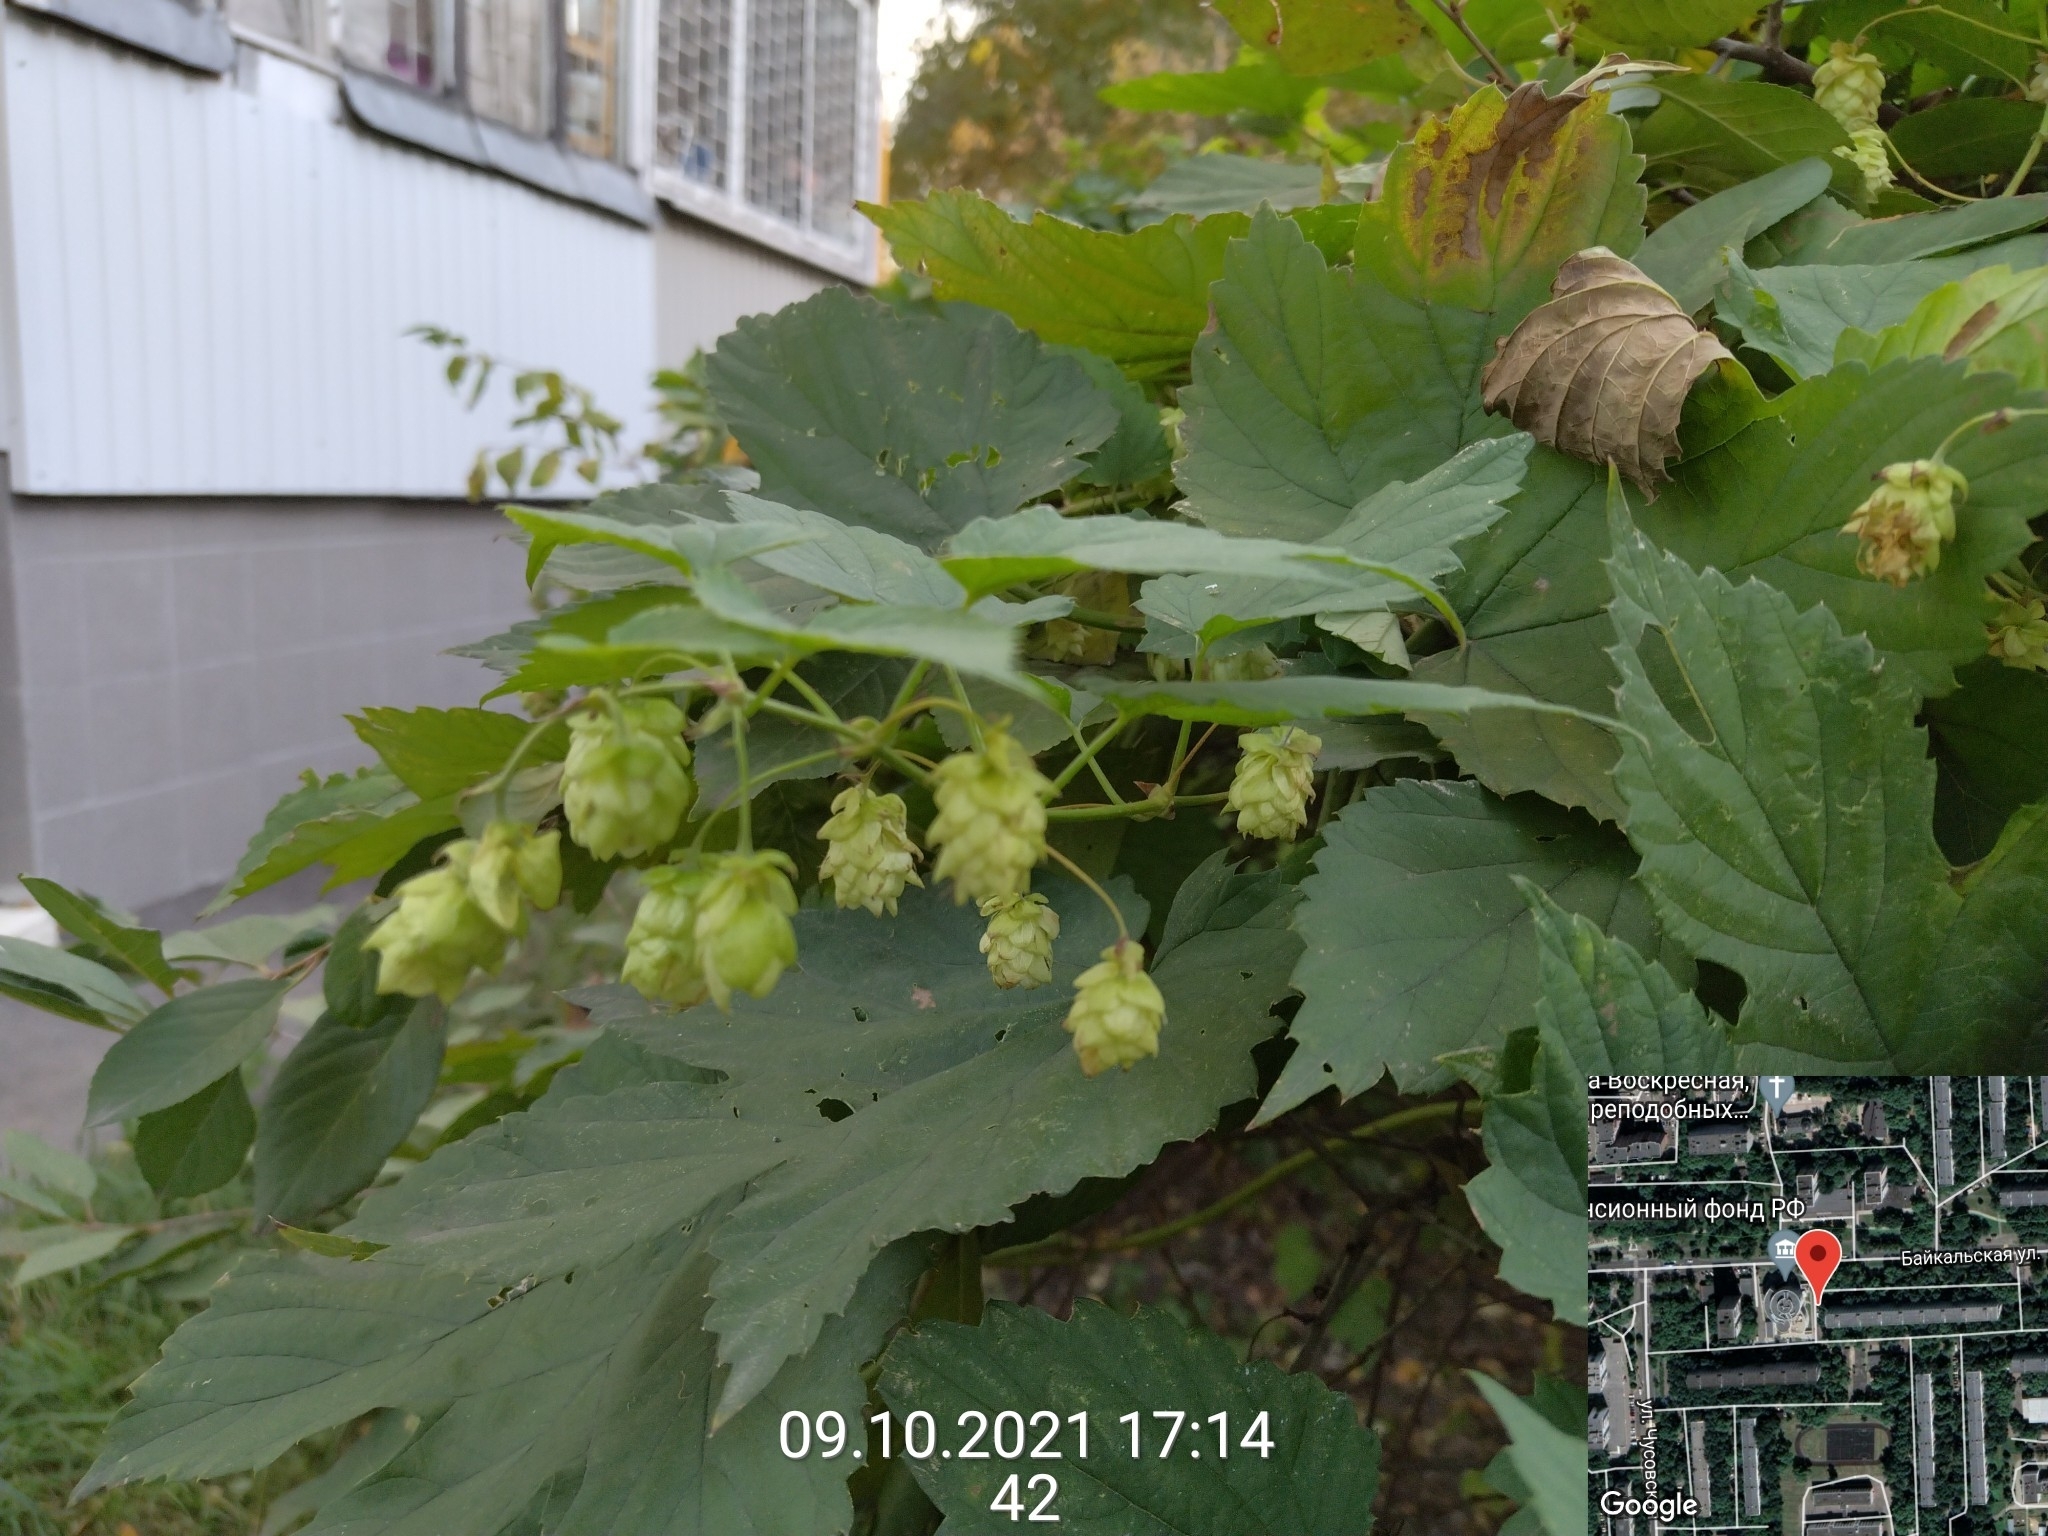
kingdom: Plantae
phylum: Tracheophyta
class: Magnoliopsida
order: Rosales
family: Cannabaceae
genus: Humulus
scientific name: Humulus lupulus
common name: Hop
